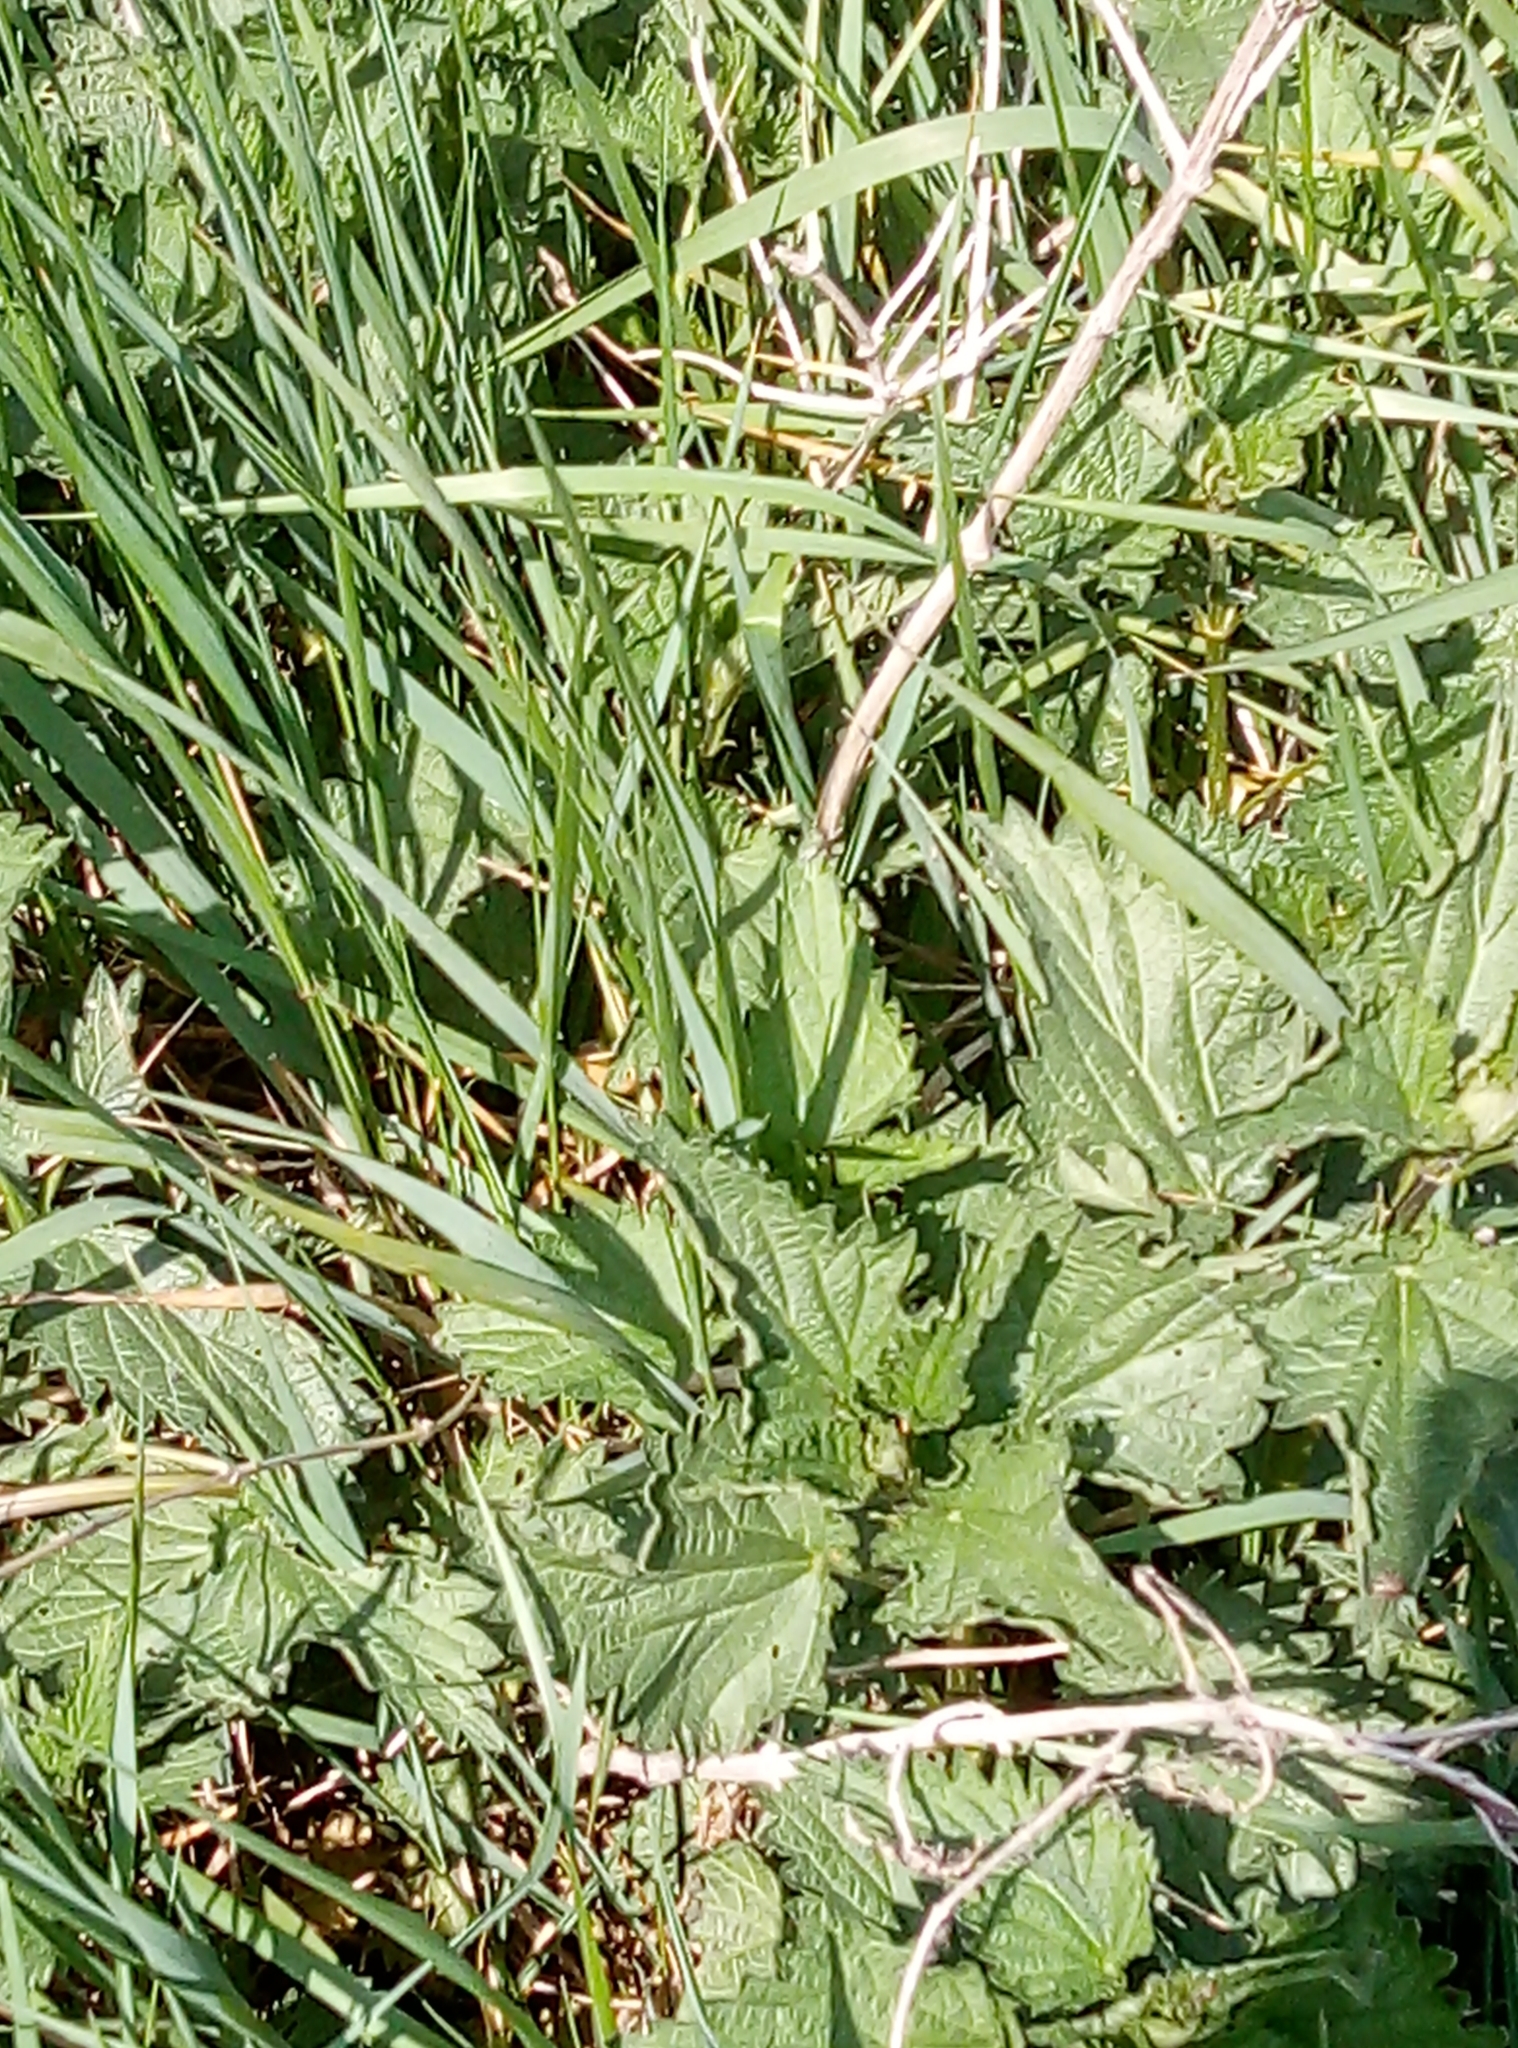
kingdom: Plantae
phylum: Tracheophyta
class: Magnoliopsida
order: Rosales
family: Urticaceae
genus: Urtica
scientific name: Urtica dioica
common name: Common nettle
